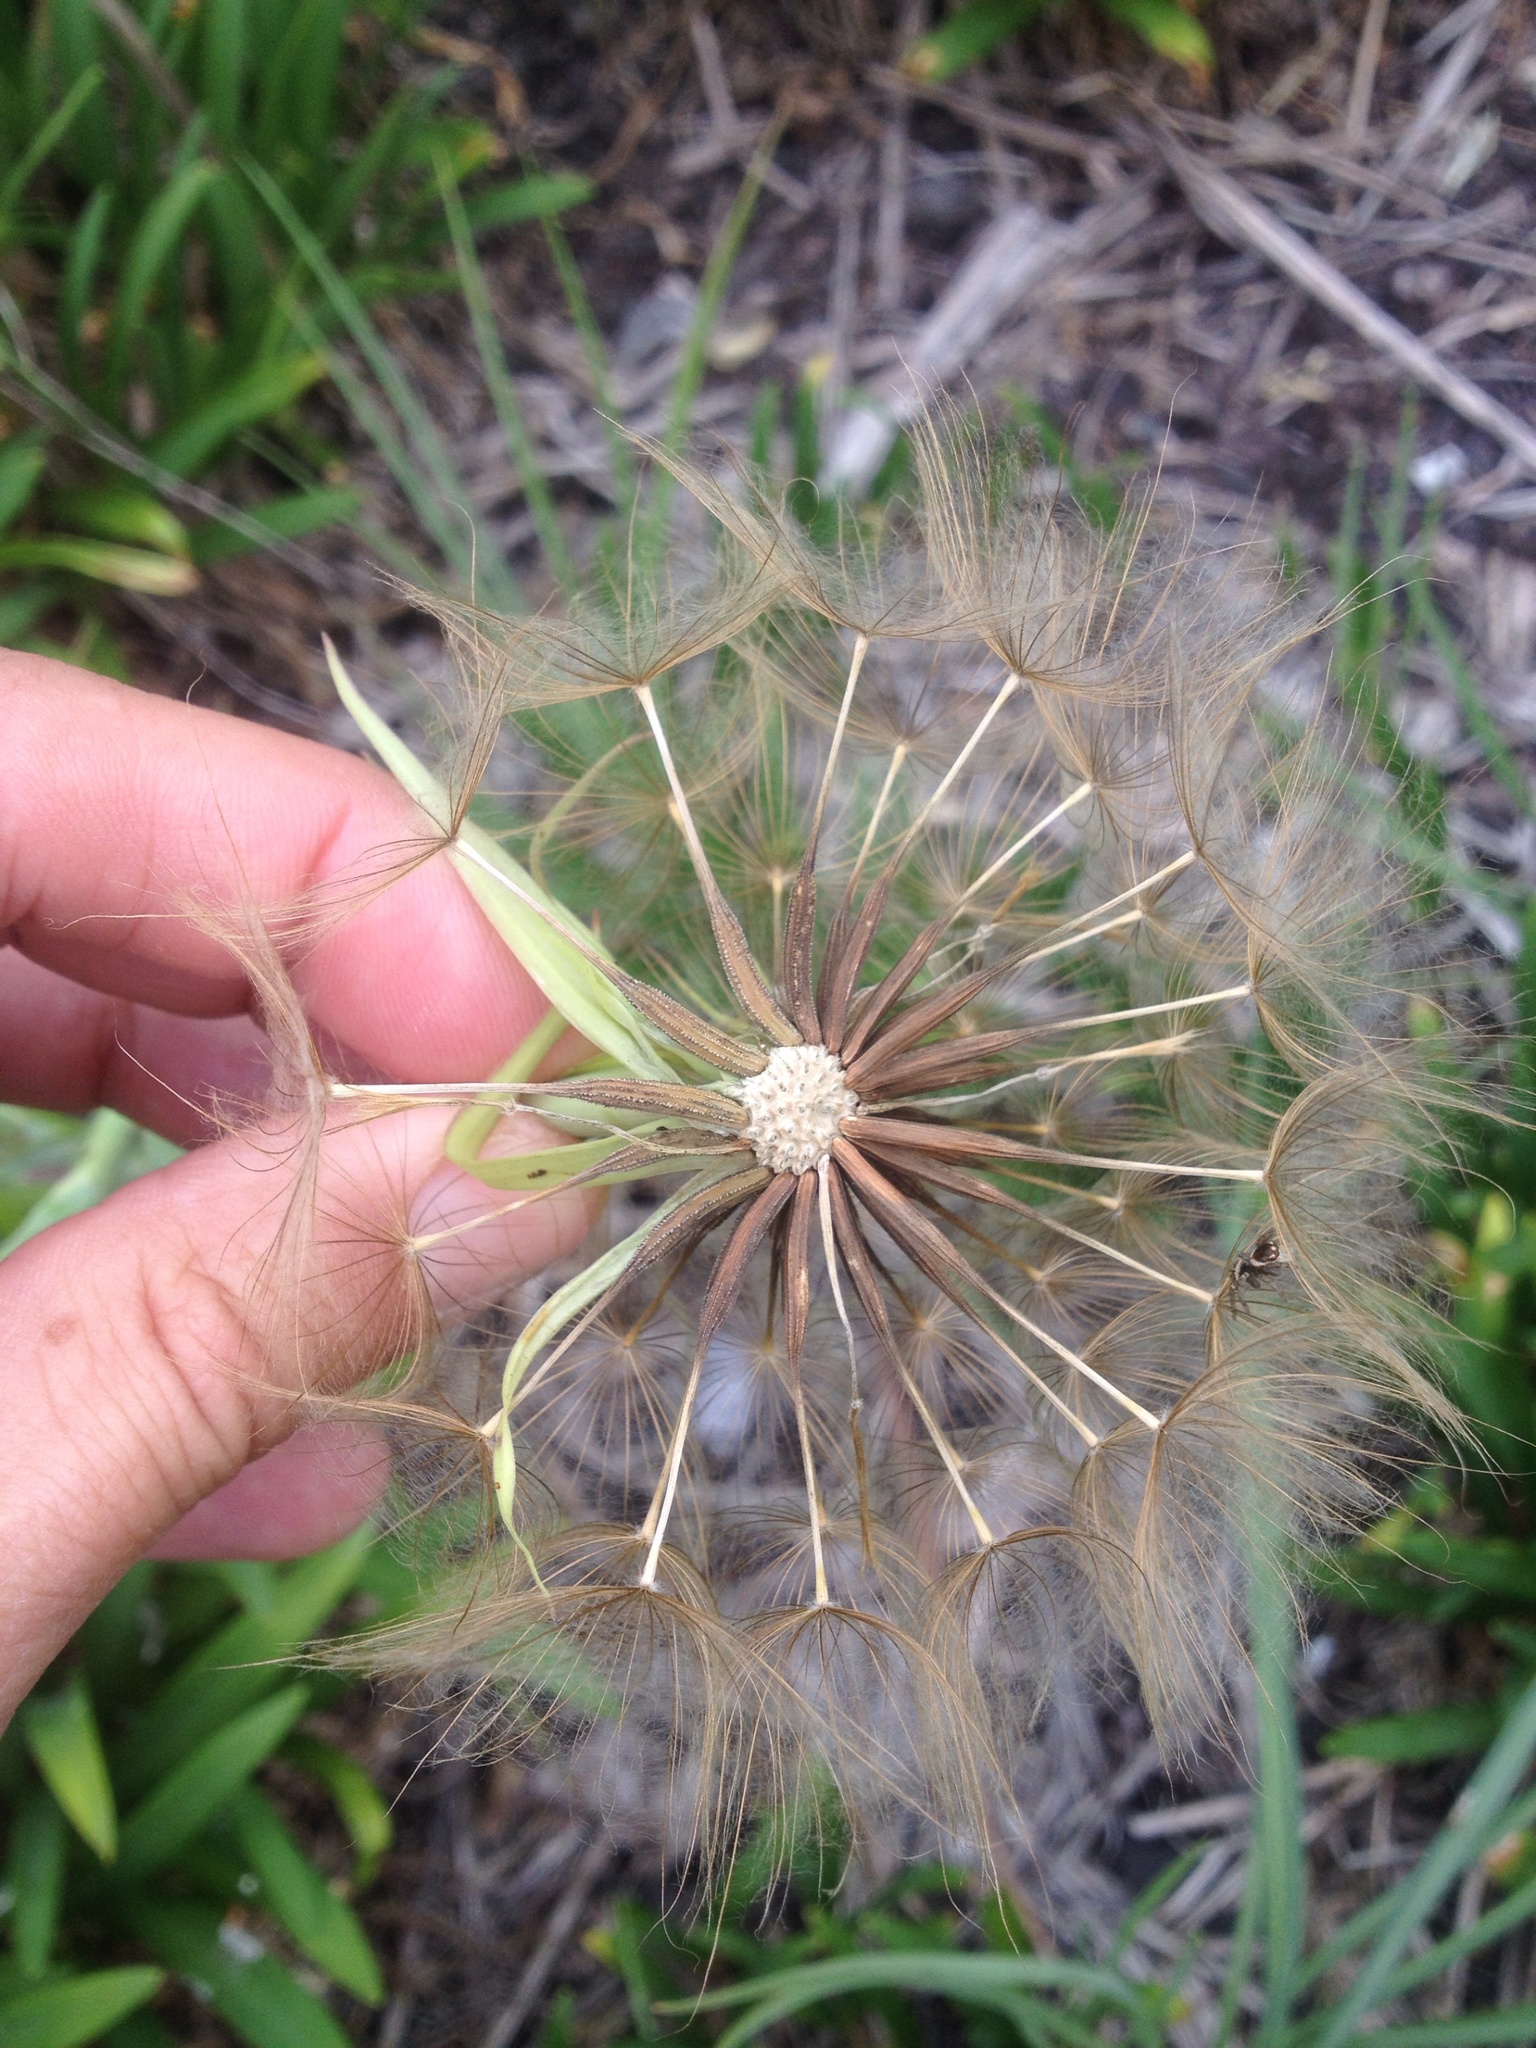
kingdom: Plantae
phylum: Tracheophyta
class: Magnoliopsida
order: Asterales
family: Asteraceae
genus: Tragopogon
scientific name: Tragopogon porrifolius
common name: Salsify
